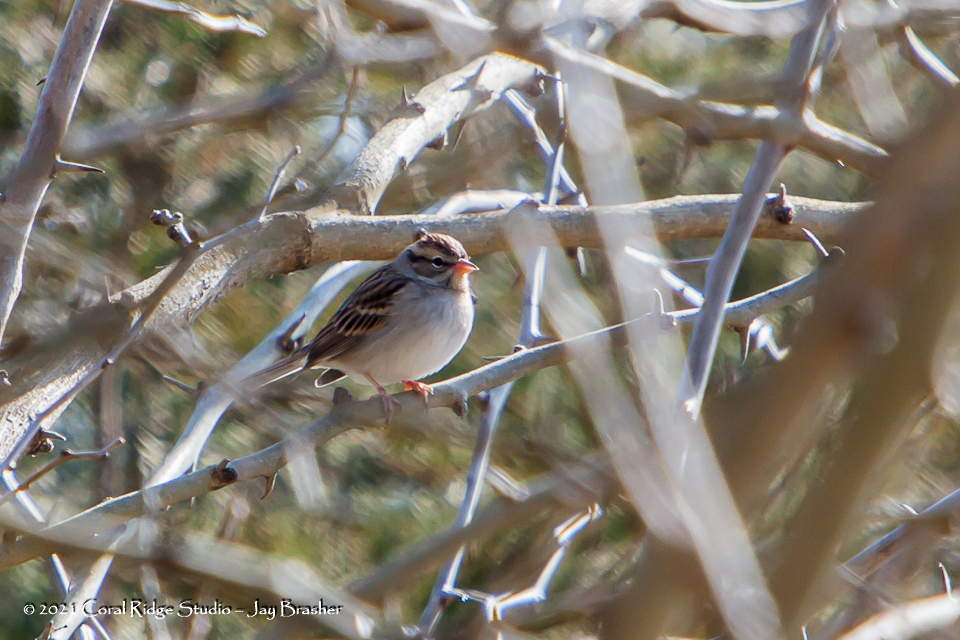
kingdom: Animalia
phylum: Chordata
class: Aves
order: Passeriformes
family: Passerellidae
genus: Spizella
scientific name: Spizella passerina
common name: Chipping sparrow
